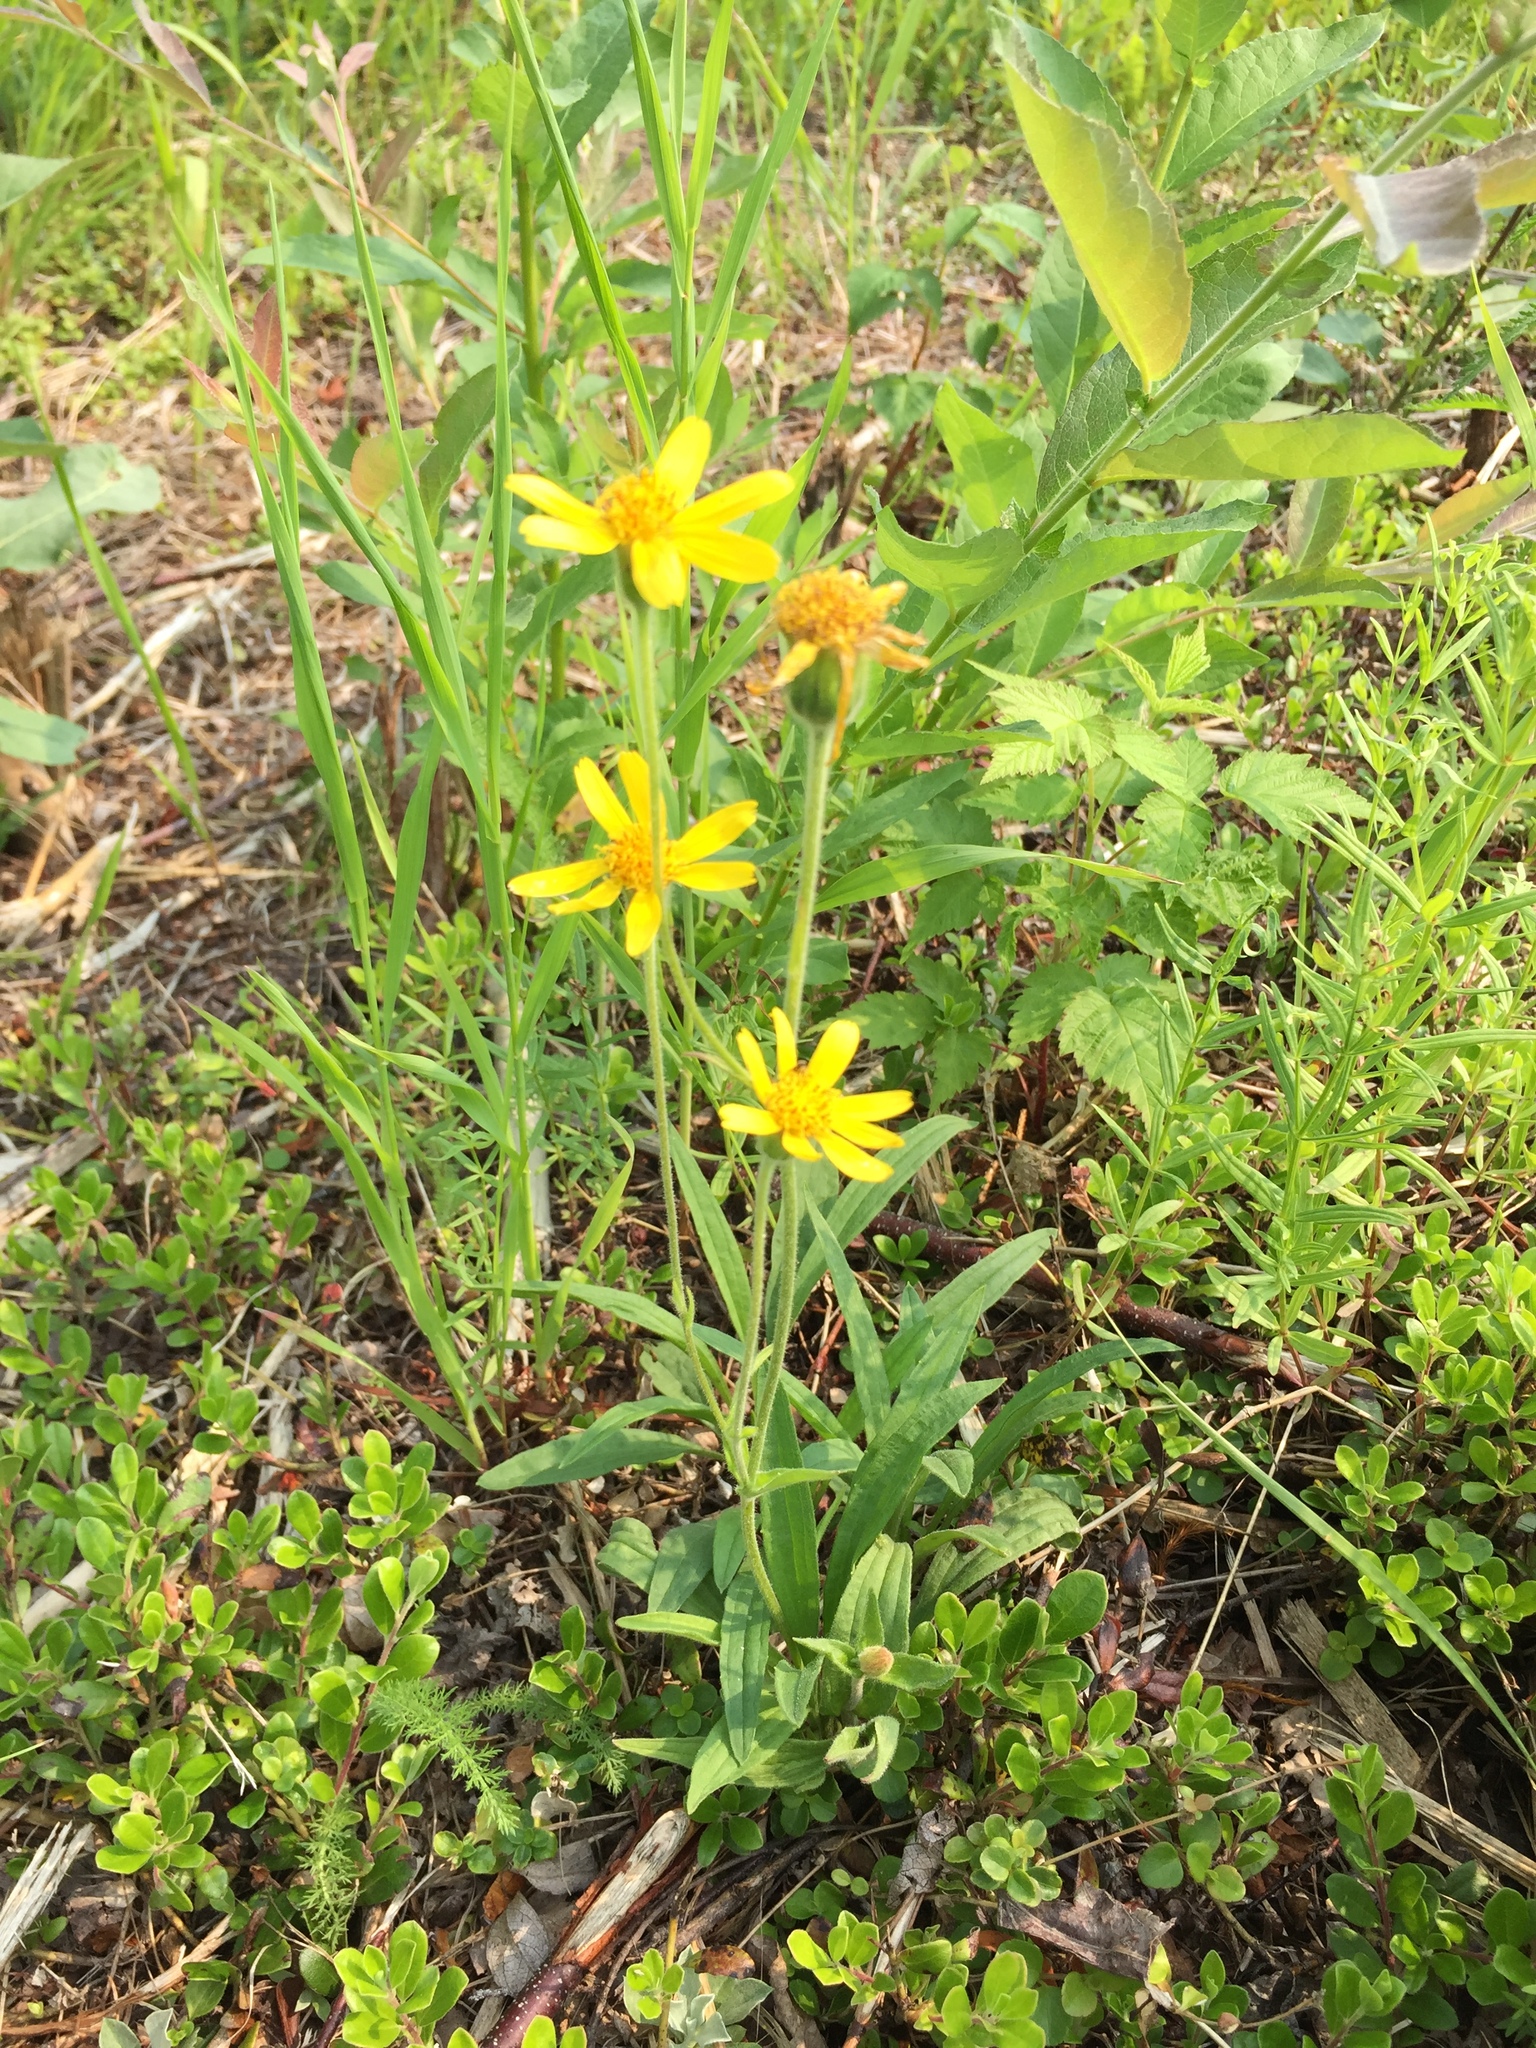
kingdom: Plantae
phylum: Tracheophyta
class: Magnoliopsida
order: Asterales
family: Asteraceae
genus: Arnica
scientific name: Arnica angustifolia
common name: Arctic arnica
